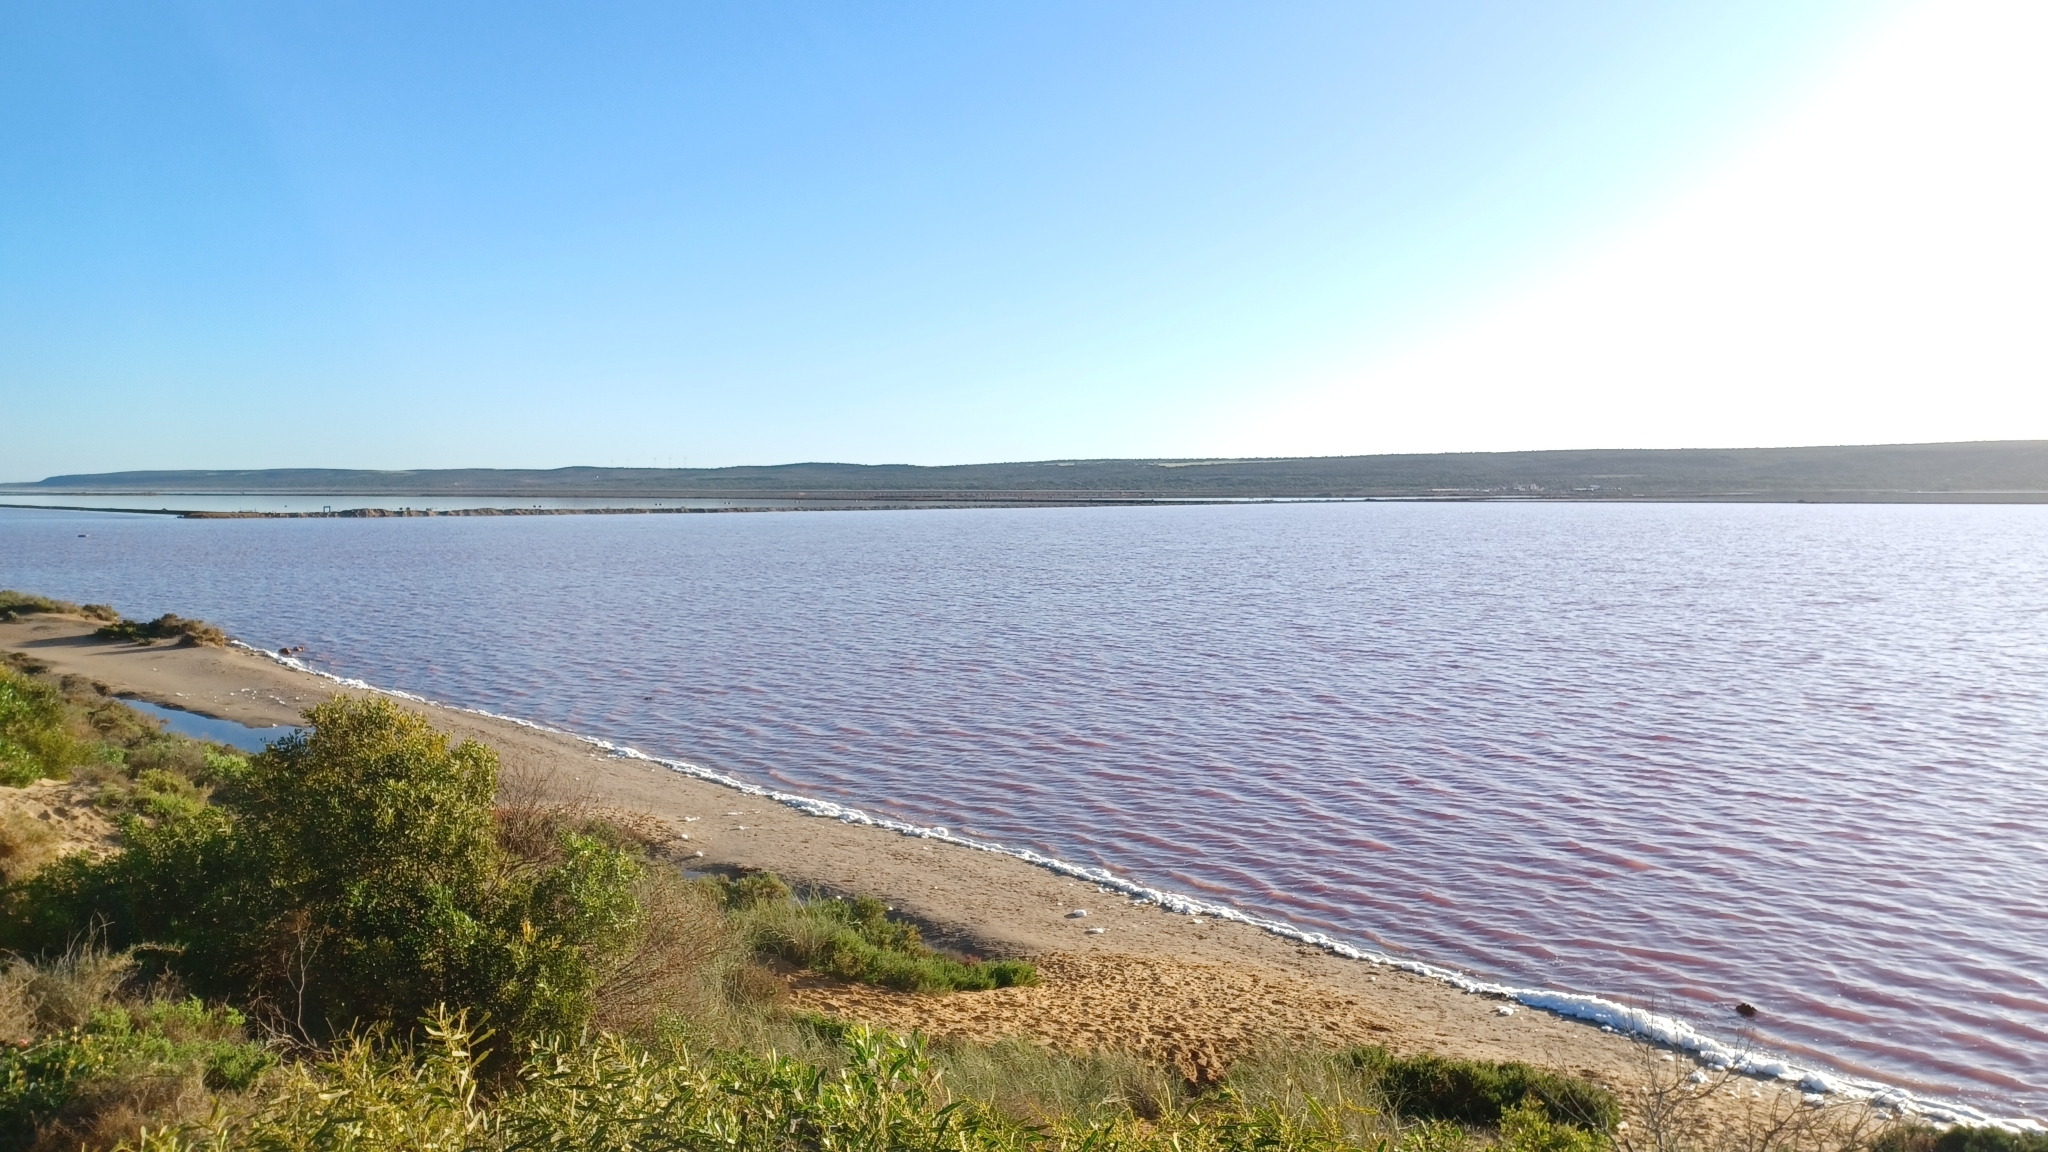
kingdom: Plantae
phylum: Chlorophyta
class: Chlorophyceae
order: Volvocales
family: Dunaliellaceae
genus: Dunaliella
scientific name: Dunaliella salina
